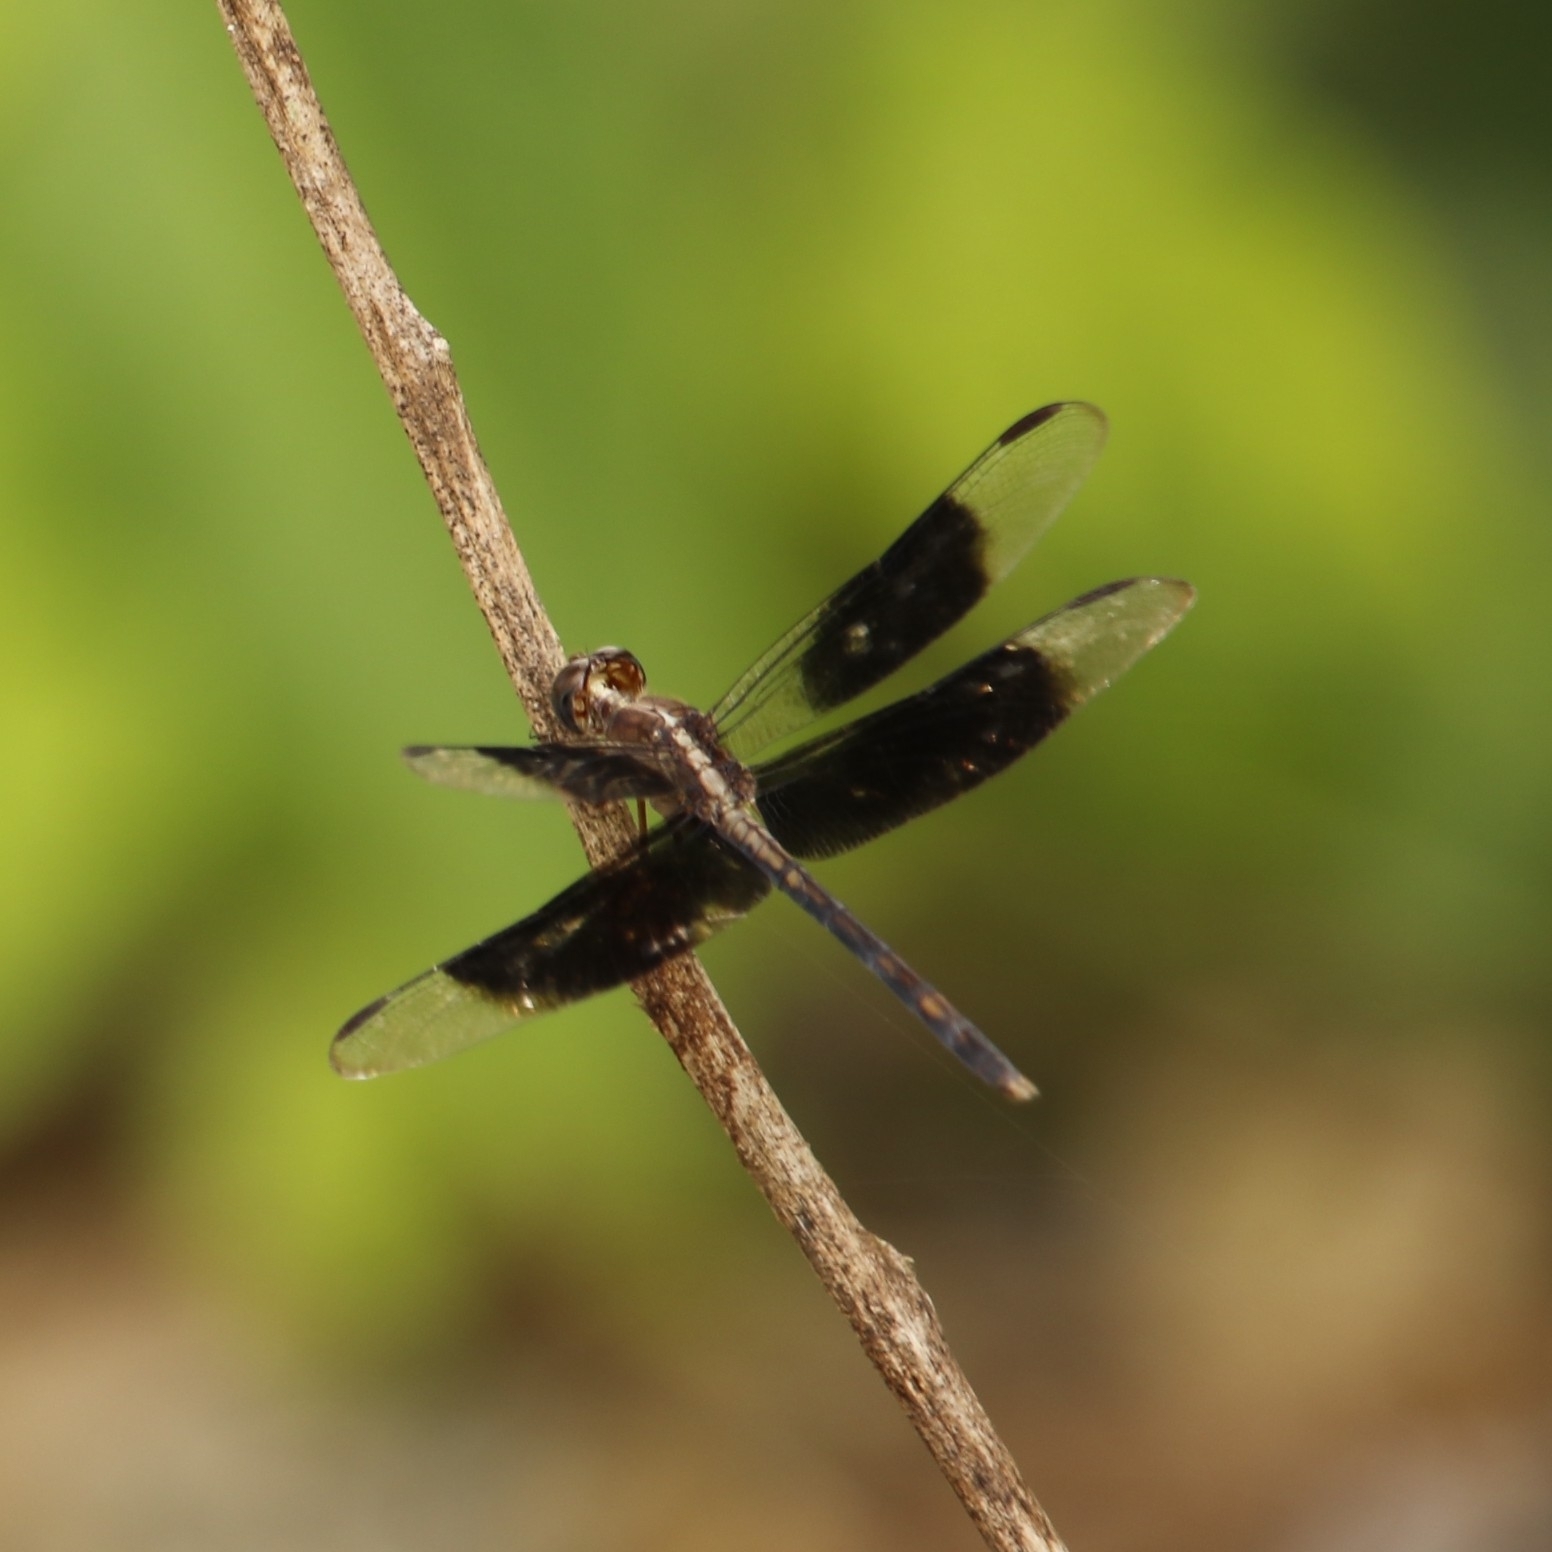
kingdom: Animalia
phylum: Arthropoda
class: Insecta
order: Odonata
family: Libellulidae
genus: Erythrodiplax
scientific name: Erythrodiplax funerea
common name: Black-winged dragonlet
